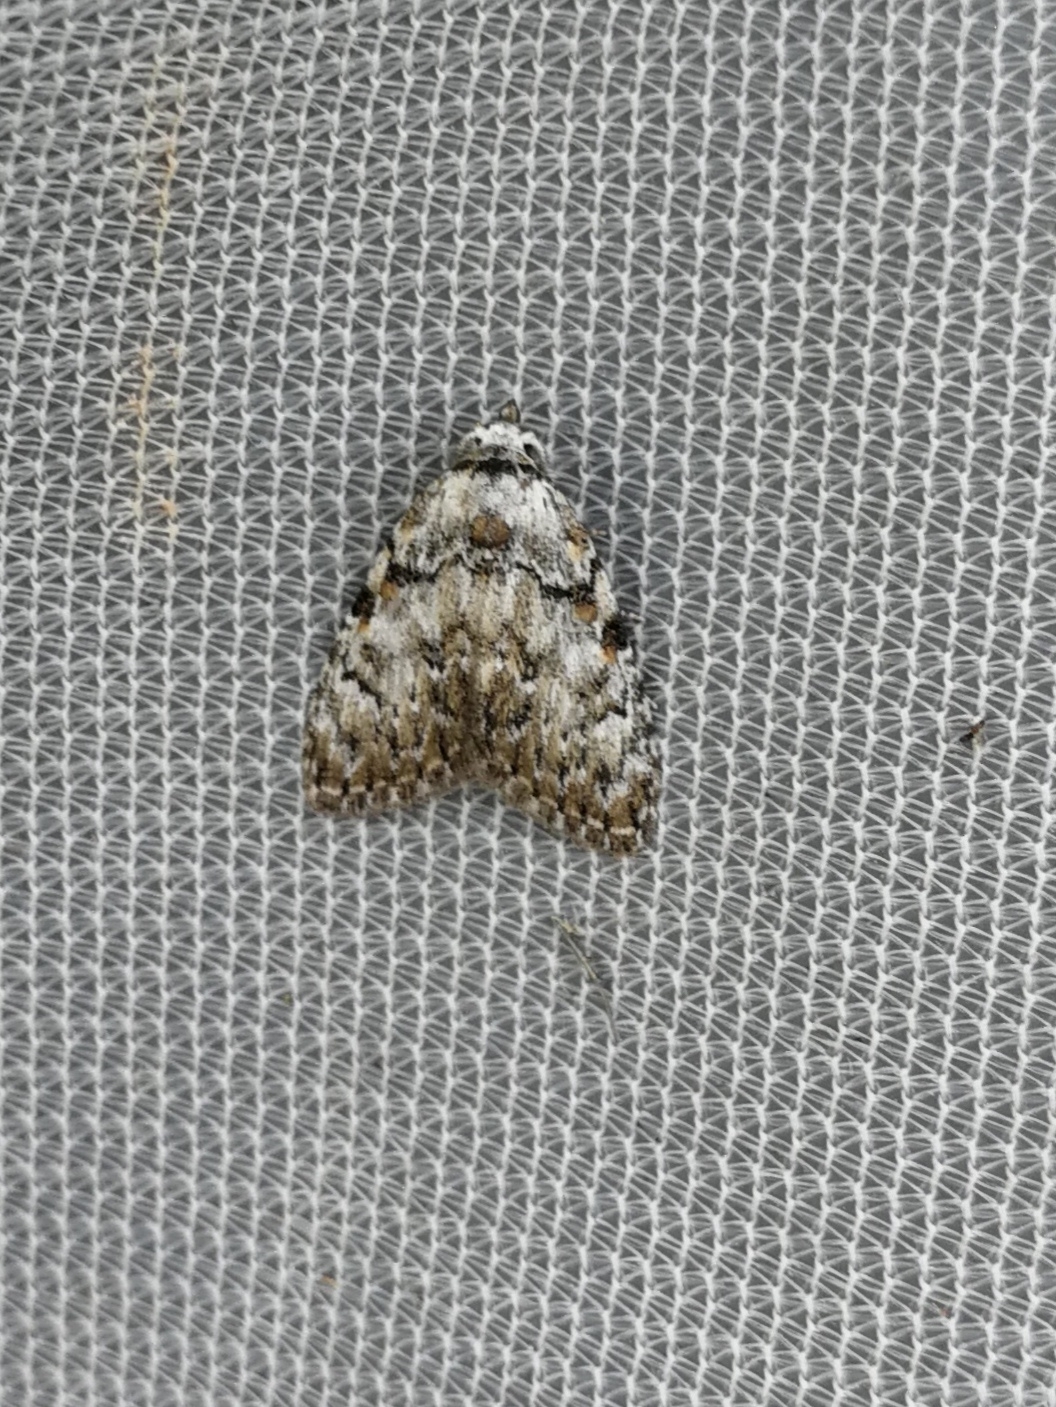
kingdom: Animalia
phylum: Arthropoda
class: Insecta
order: Lepidoptera
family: Nolidae
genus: Meganola
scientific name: Meganola strigula
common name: Small black arches
